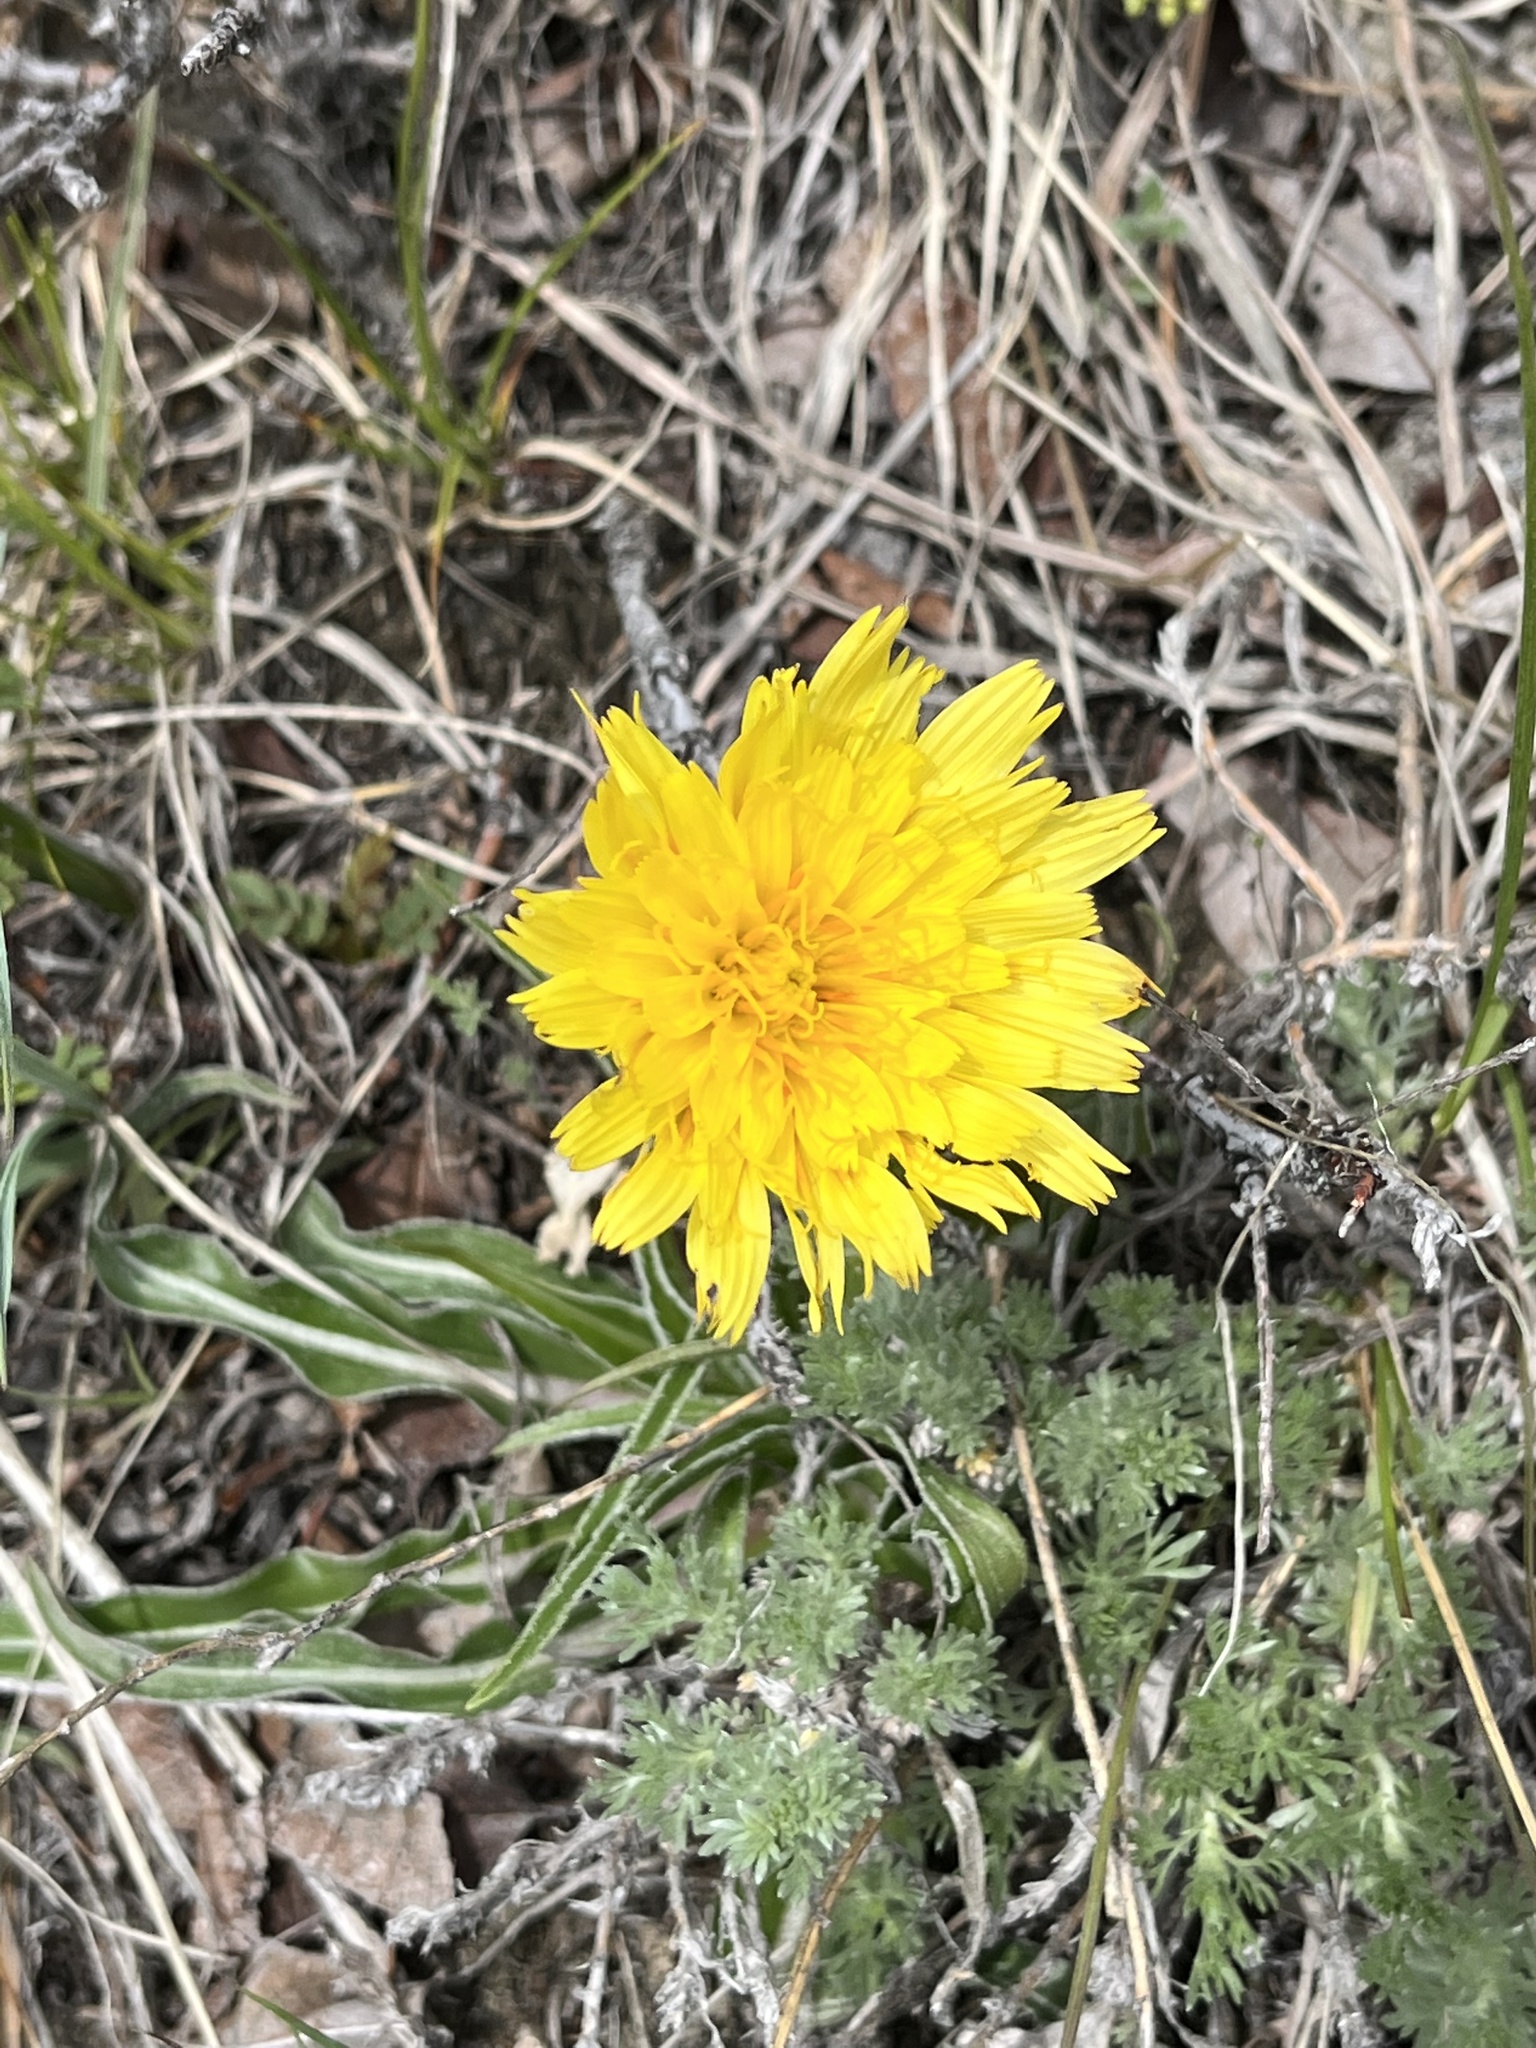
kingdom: Plantae
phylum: Tracheophyta
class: Magnoliopsida
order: Asterales
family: Asteraceae
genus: Microseris
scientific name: Microseris cuspidata
